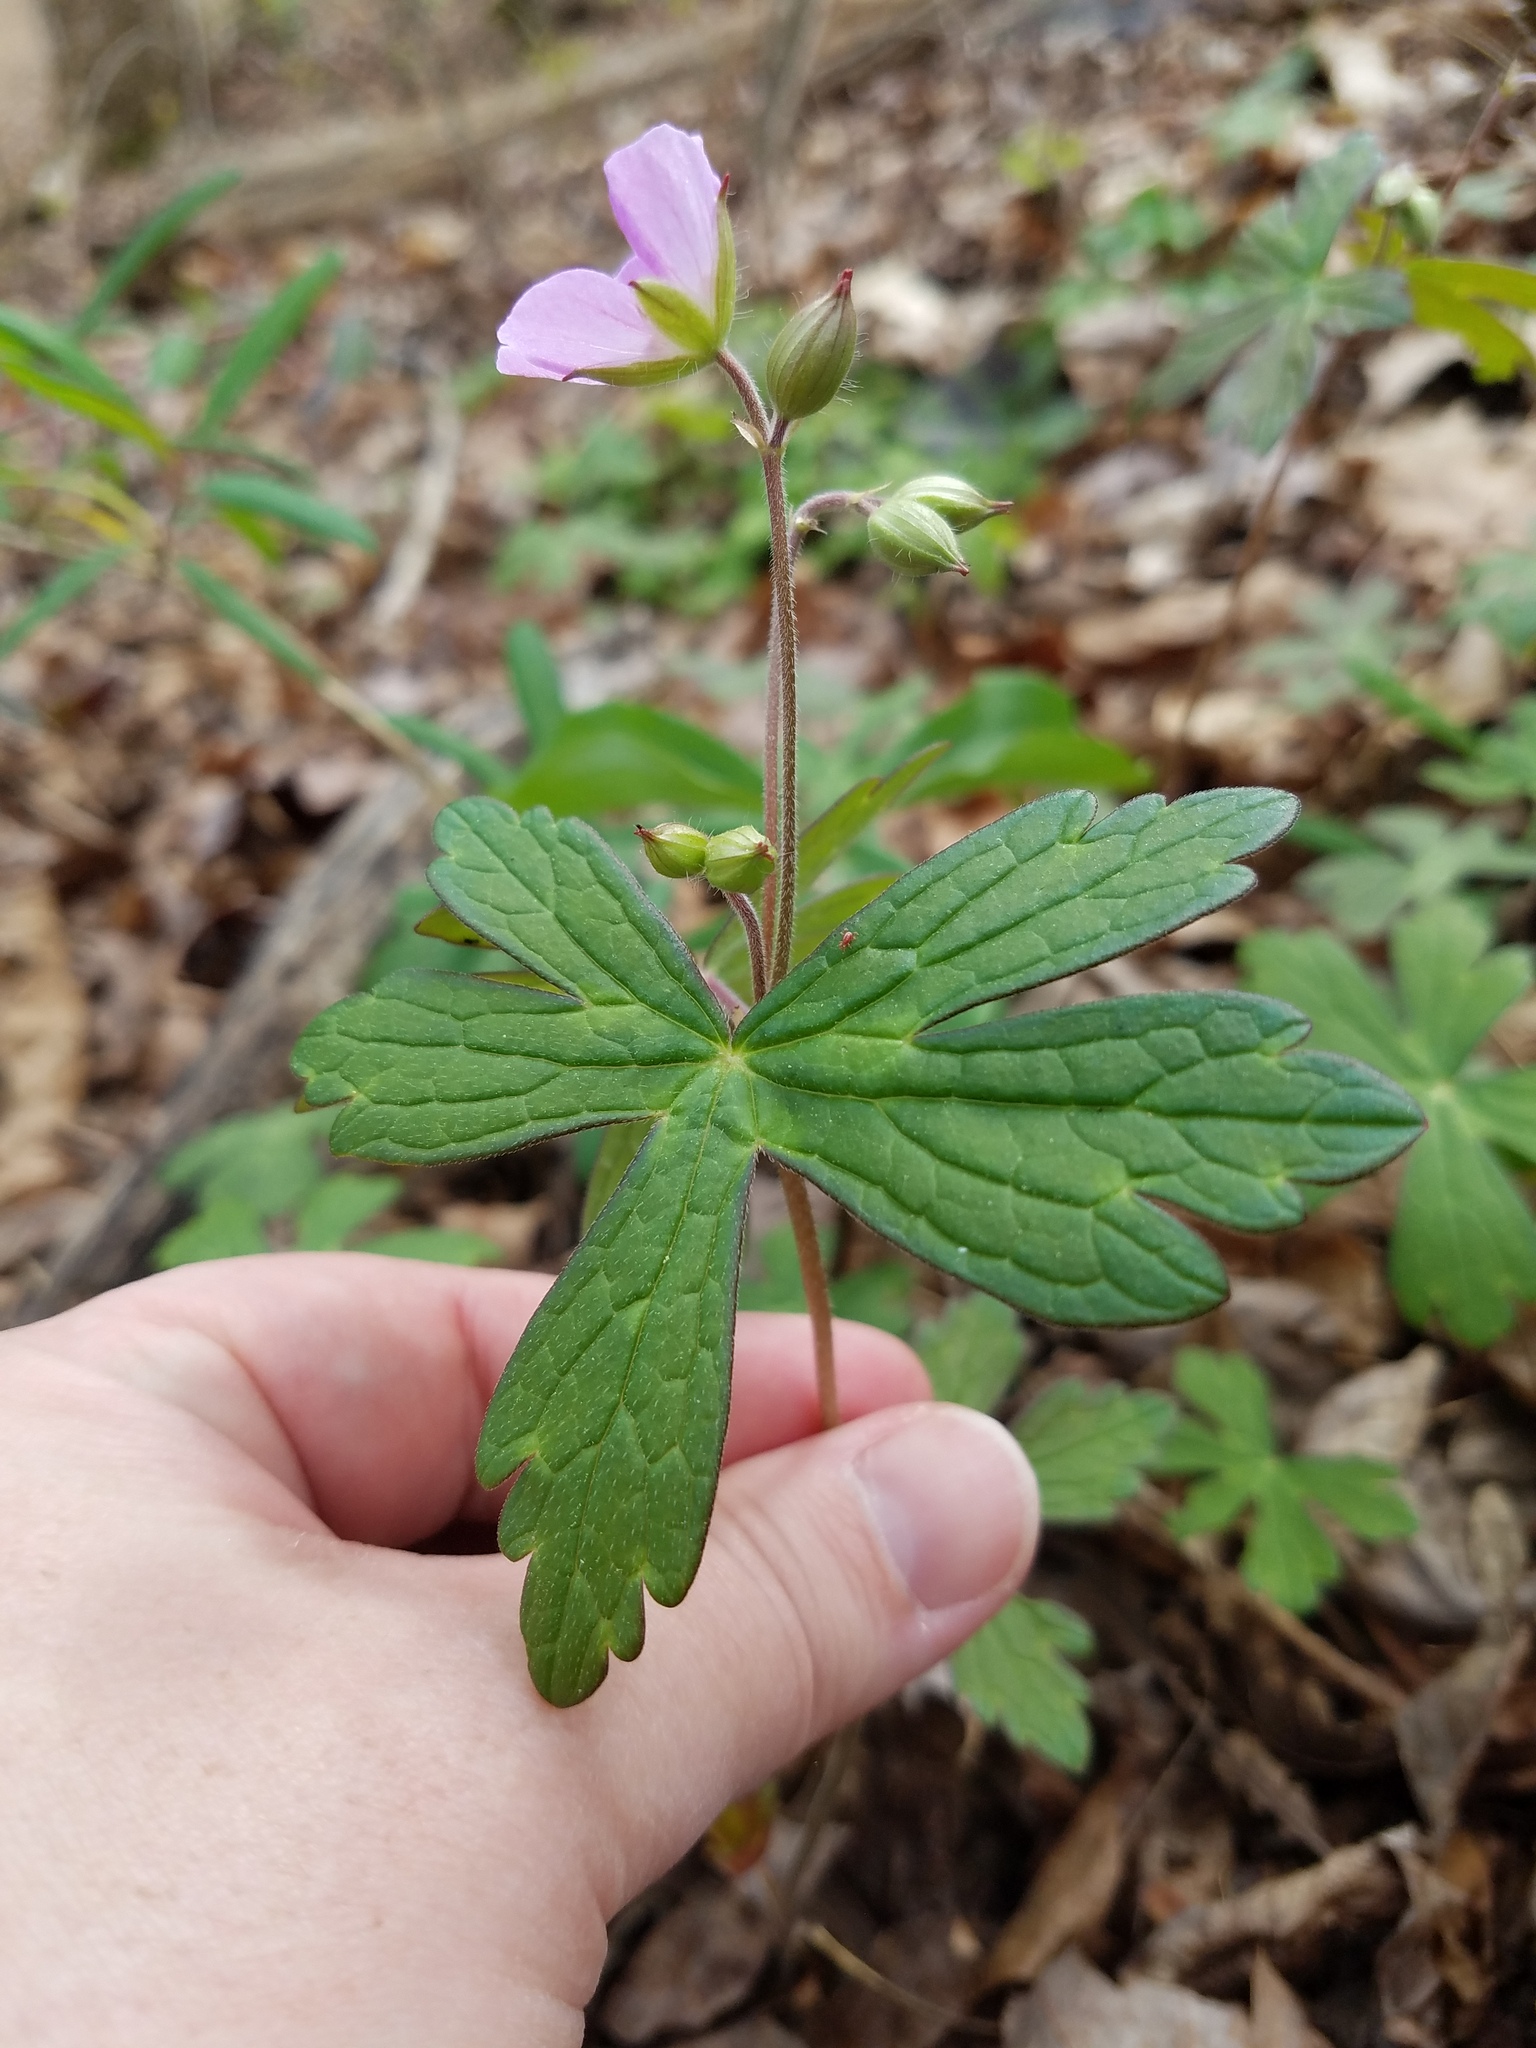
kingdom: Plantae
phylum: Tracheophyta
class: Magnoliopsida
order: Geraniales
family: Geraniaceae
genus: Geranium
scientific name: Geranium maculatum
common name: Spotted geranium
